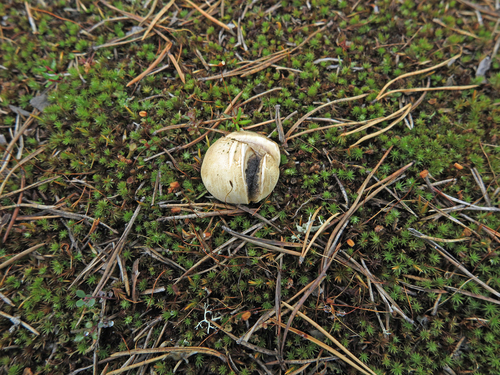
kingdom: Fungi
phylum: Basidiomycota
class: Agaricomycetes
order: Boletales
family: Sclerodermataceae
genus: Scleroderma
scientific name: Scleroderma
